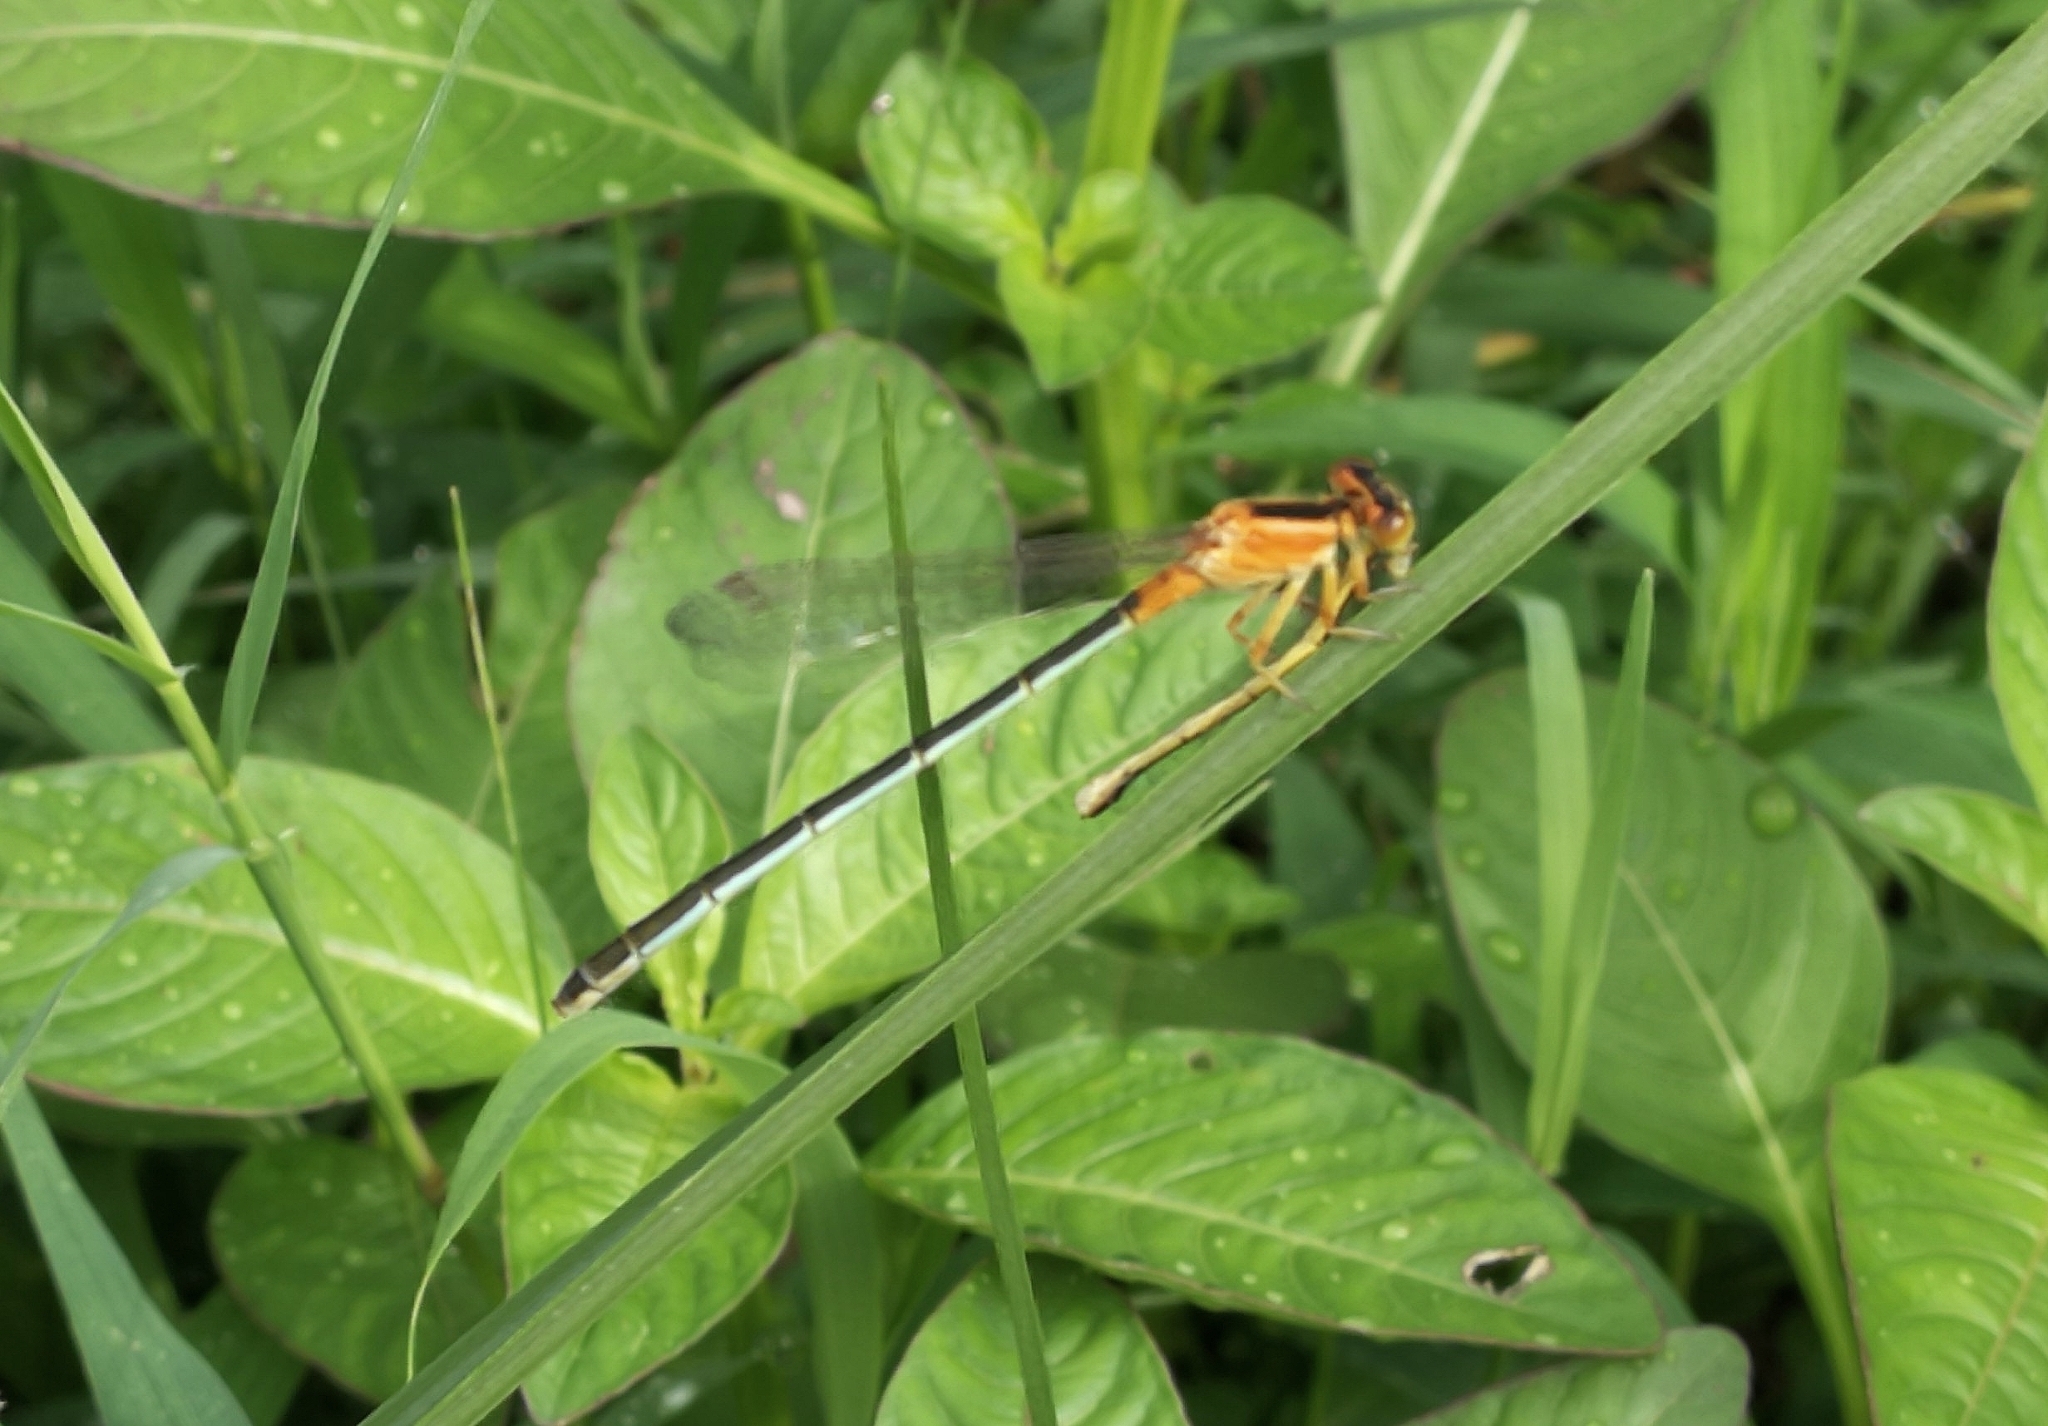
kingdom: Animalia
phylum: Arthropoda
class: Insecta
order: Odonata
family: Coenagrionidae
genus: Ischnura
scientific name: Ischnura senegalensis
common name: Tropical bluetail
